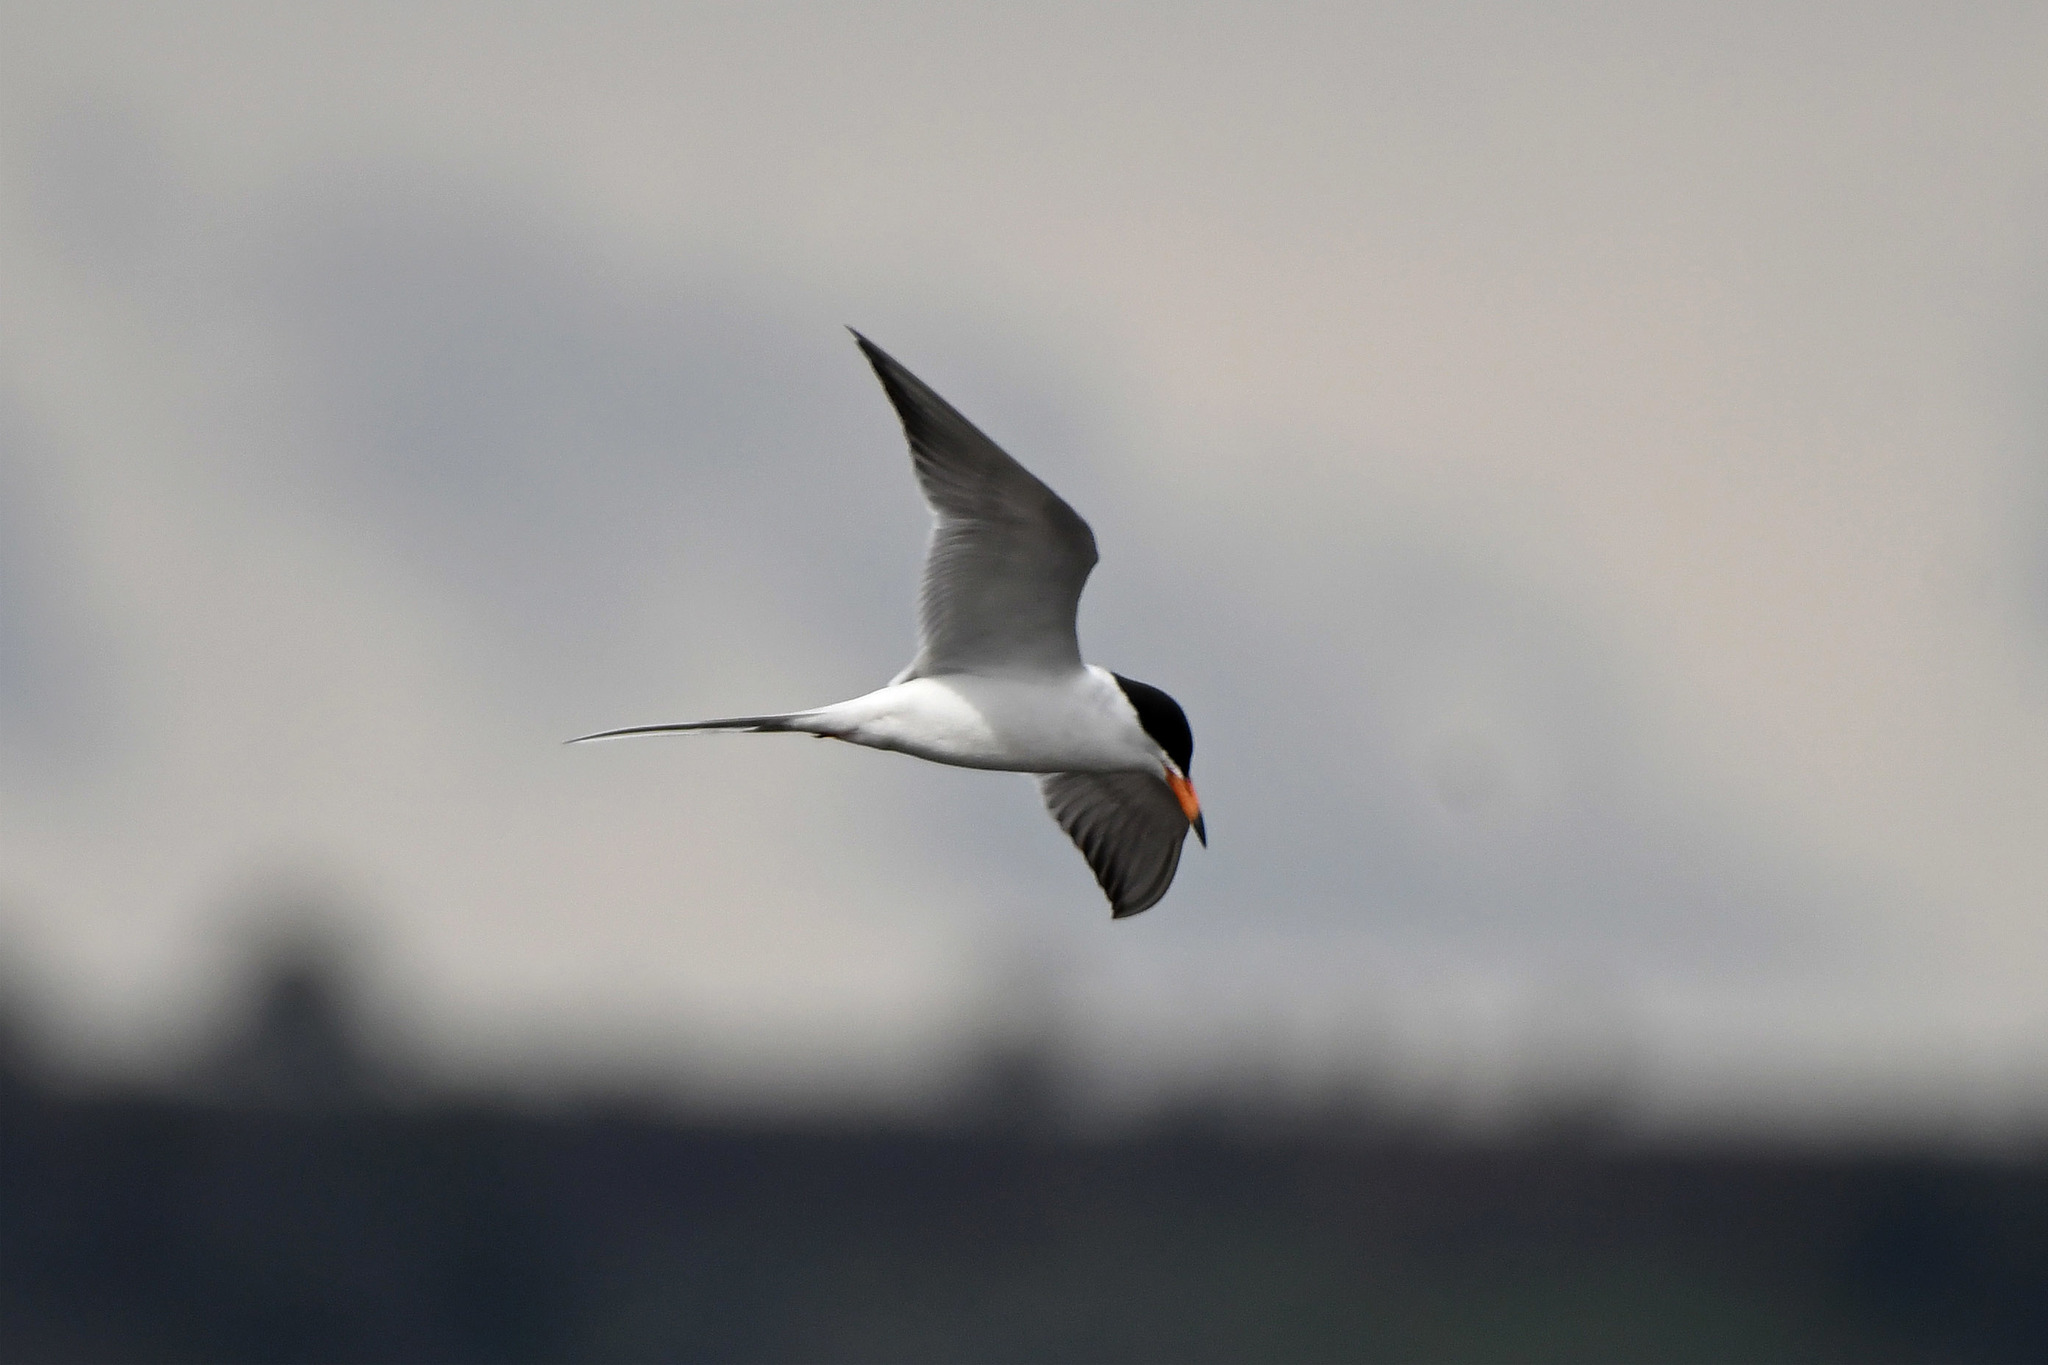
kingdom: Animalia
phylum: Chordata
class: Aves
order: Charadriiformes
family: Laridae
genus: Sterna
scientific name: Sterna forsteri
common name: Forster's tern
